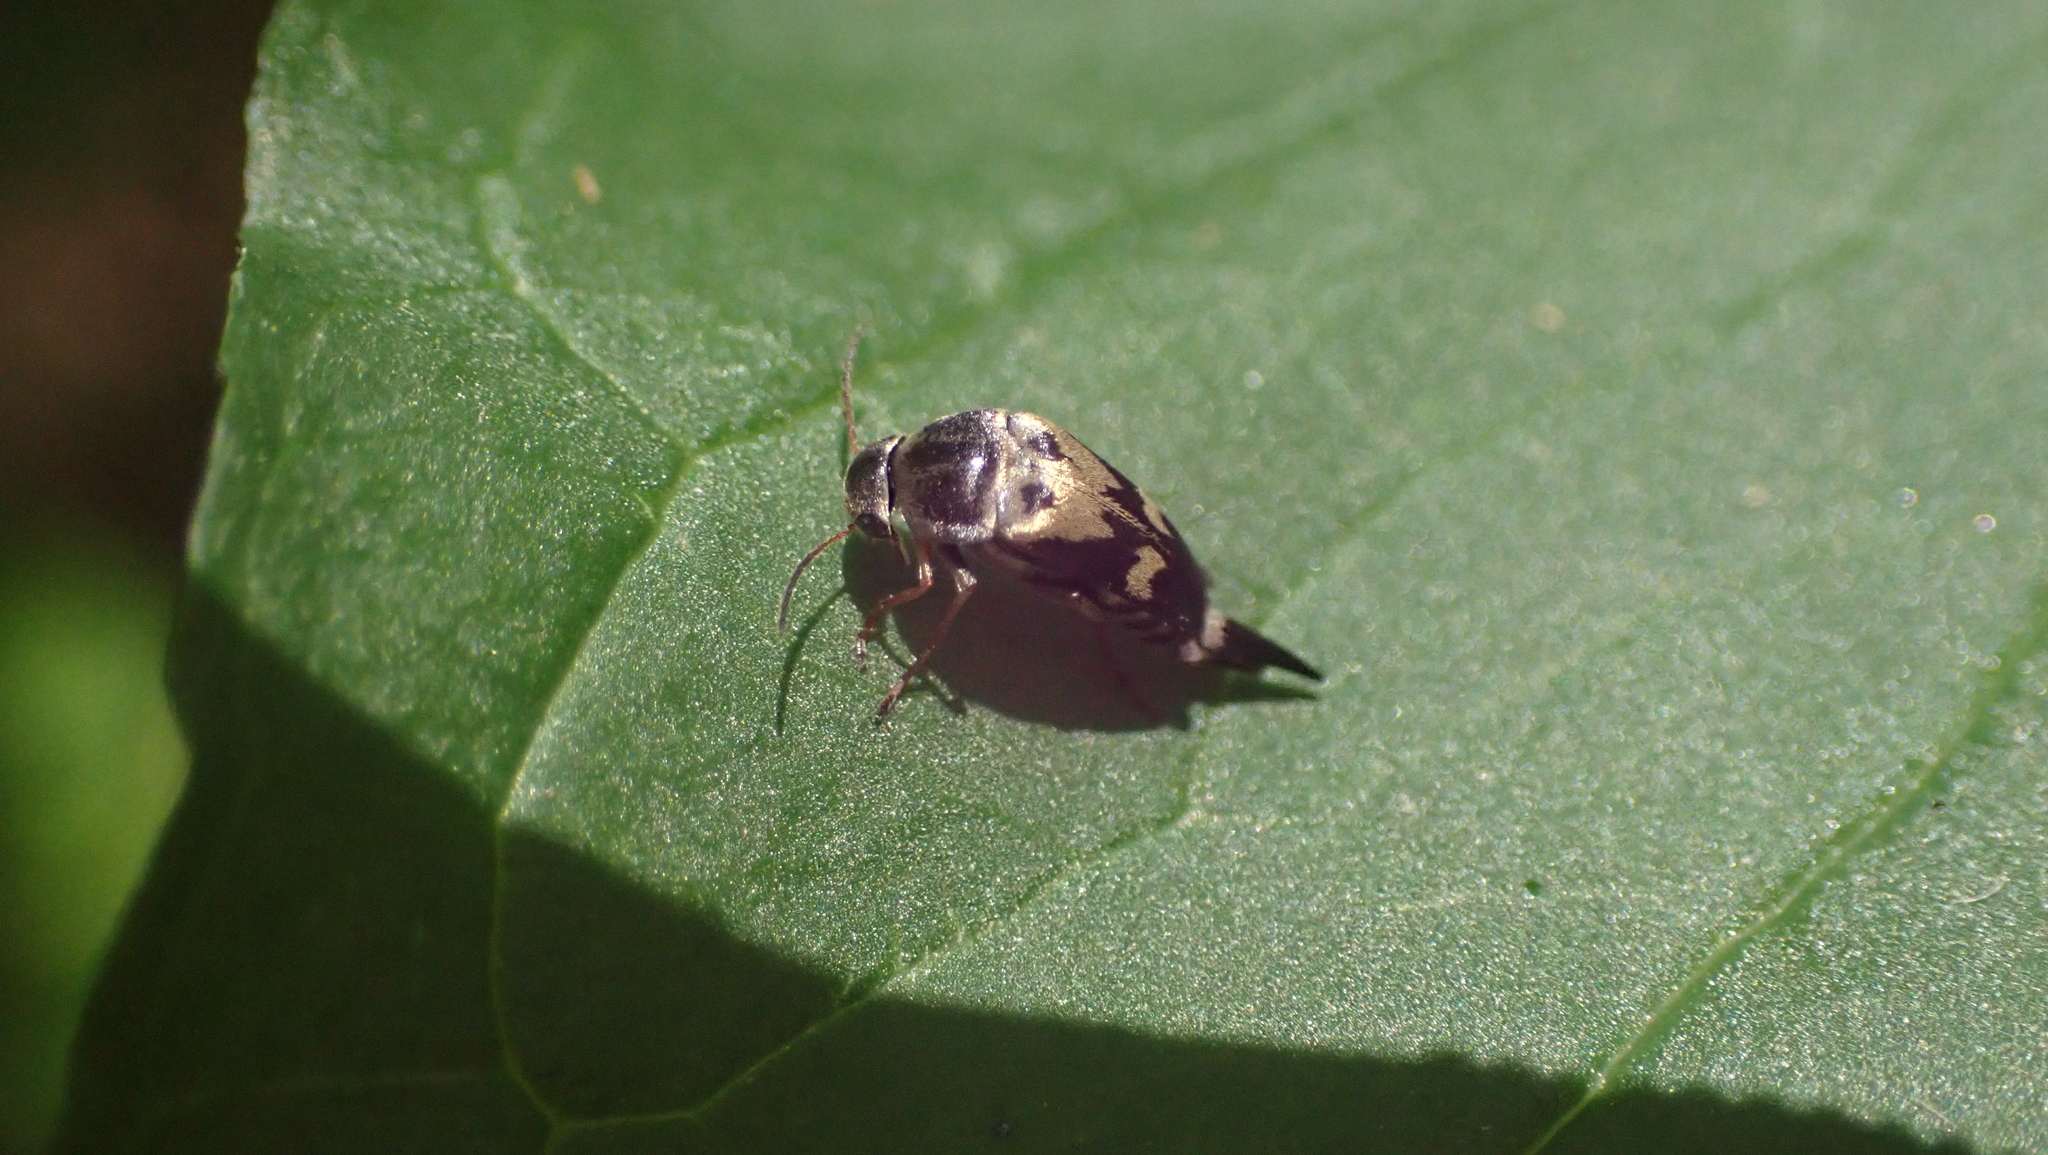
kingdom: Animalia
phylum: Arthropoda
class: Insecta
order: Coleoptera
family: Mordellidae
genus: Glipa
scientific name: Glipa oculata
